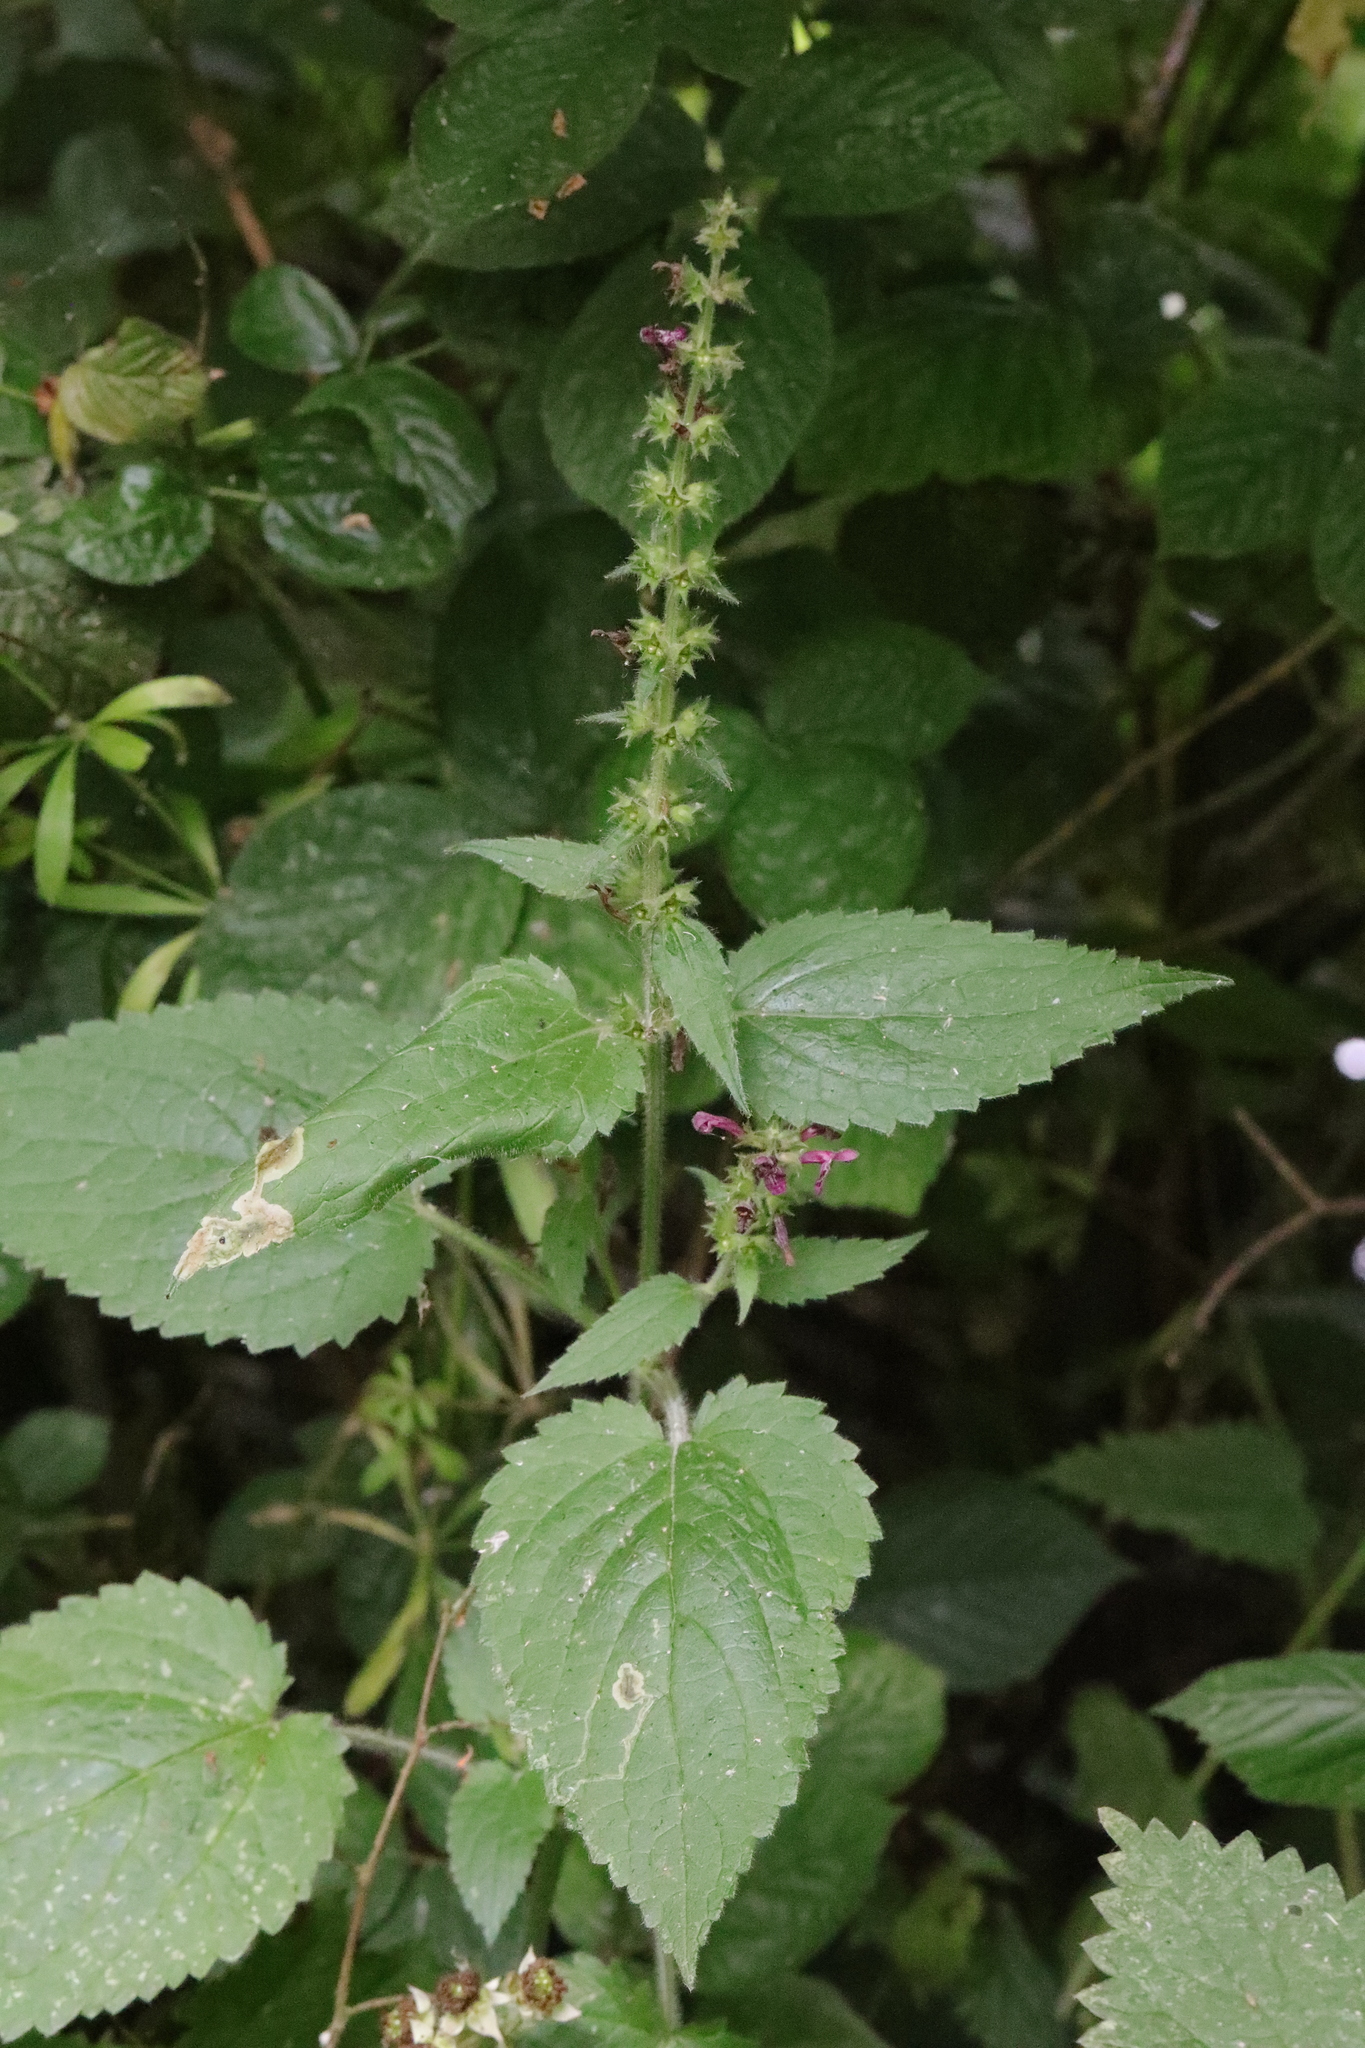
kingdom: Plantae
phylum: Tracheophyta
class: Magnoliopsida
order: Lamiales
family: Lamiaceae
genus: Stachys
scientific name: Stachys sylvatica
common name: Hedge woundwort
